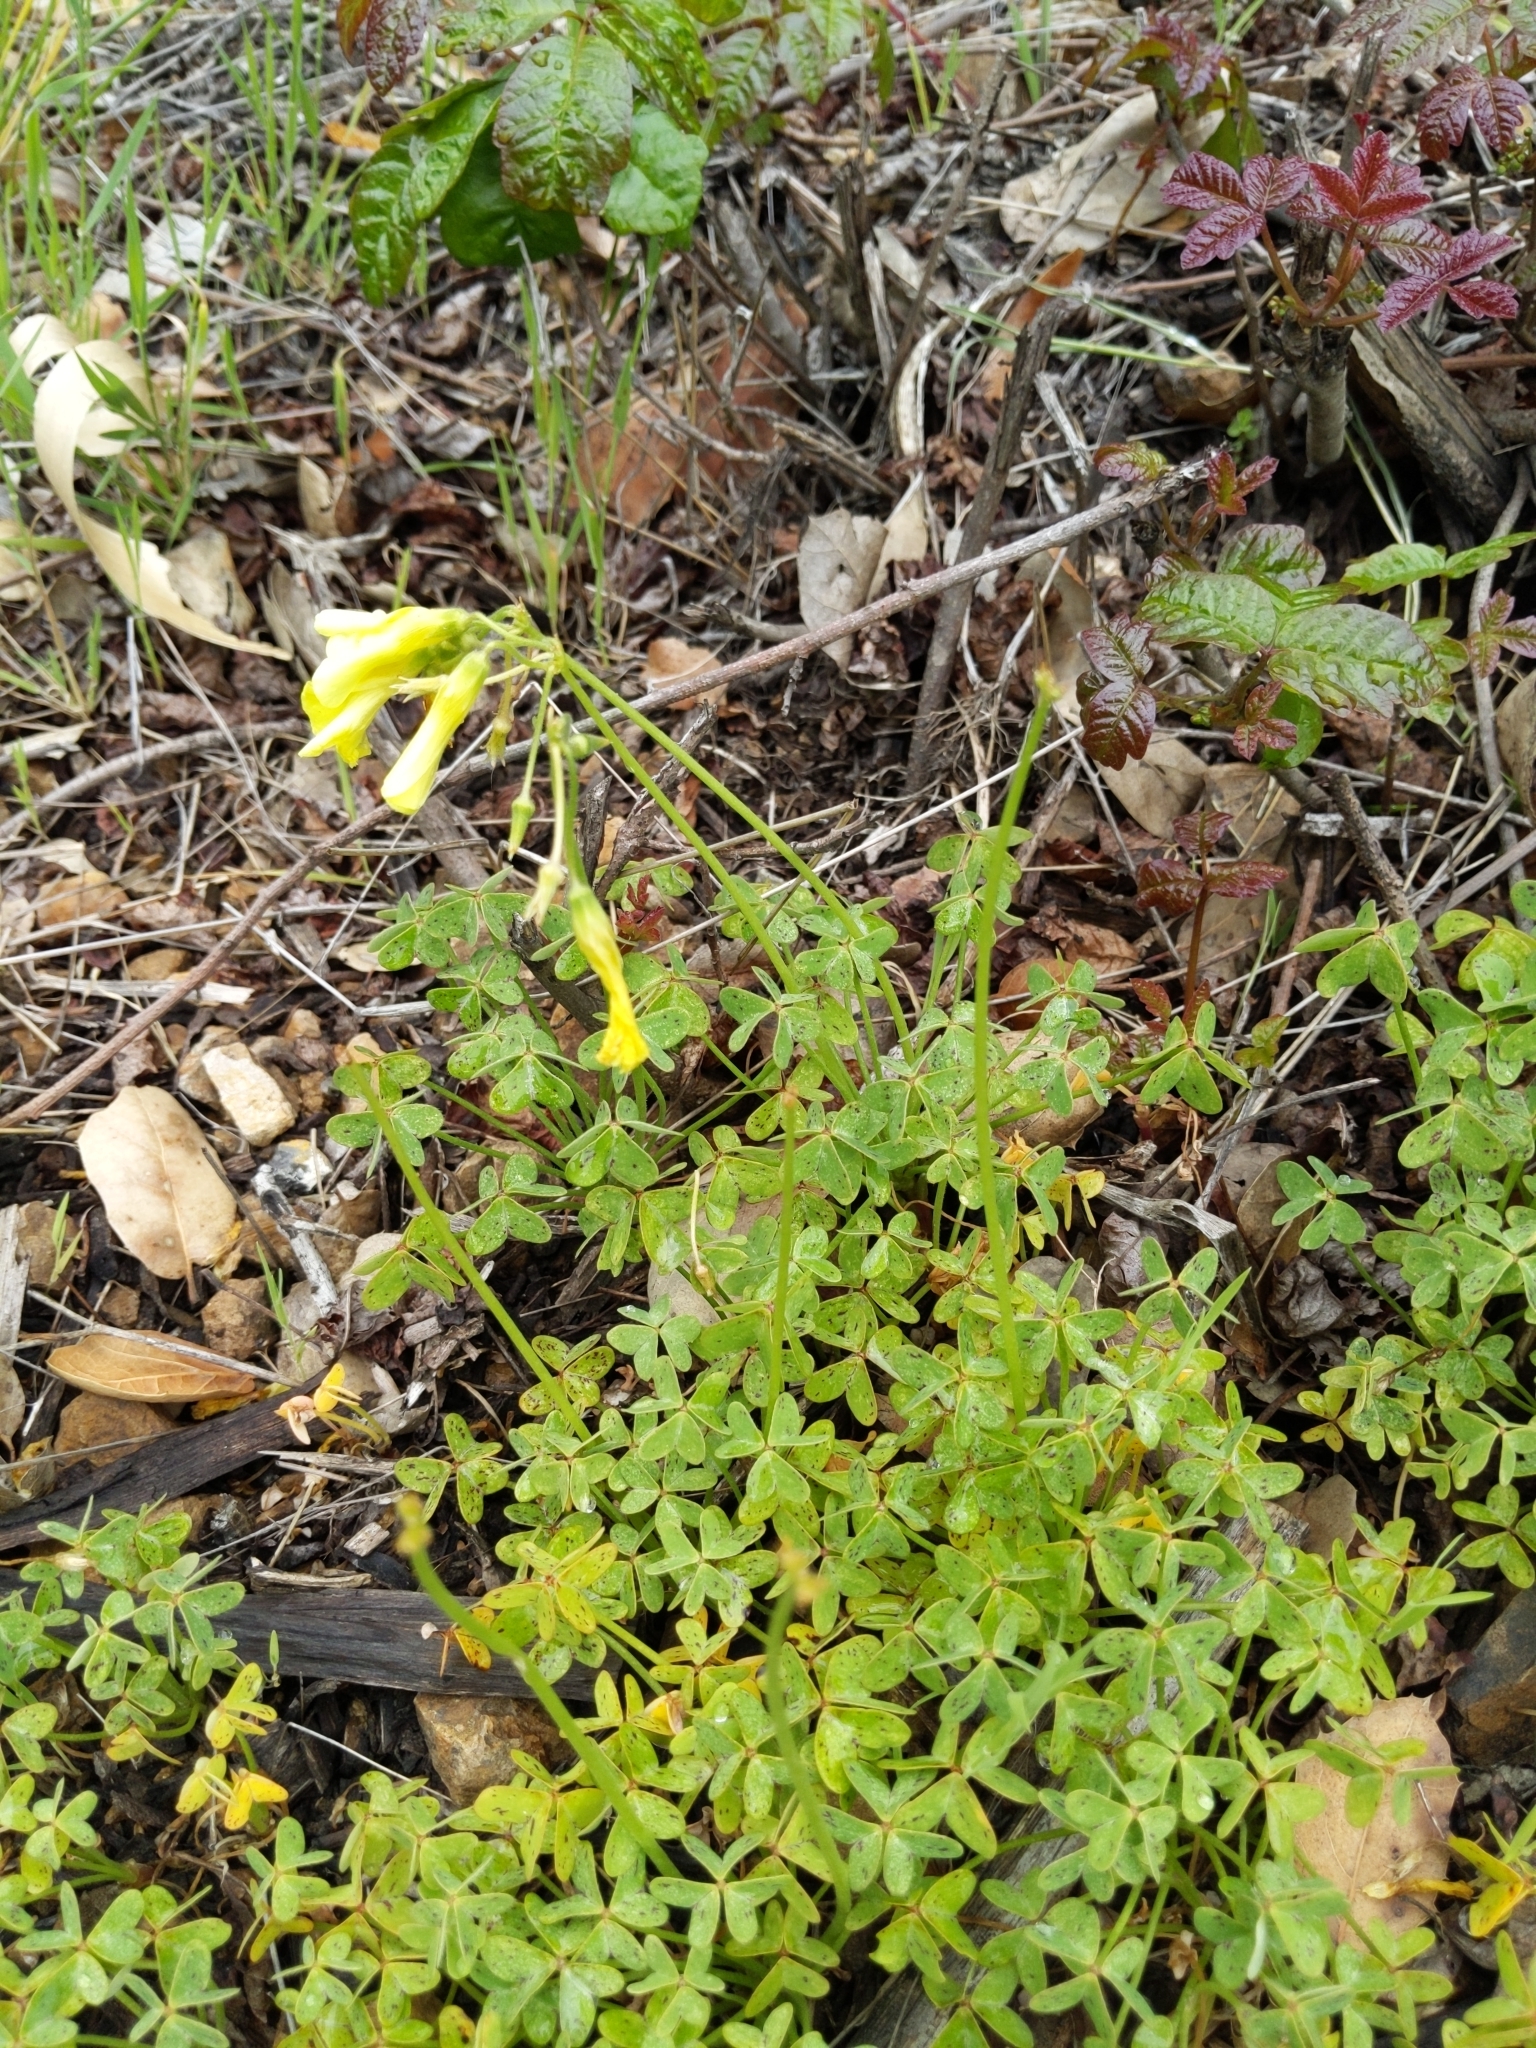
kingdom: Plantae
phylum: Tracheophyta
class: Magnoliopsida
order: Oxalidales
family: Oxalidaceae
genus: Oxalis
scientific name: Oxalis pes-caprae
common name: Bermuda-buttercup
